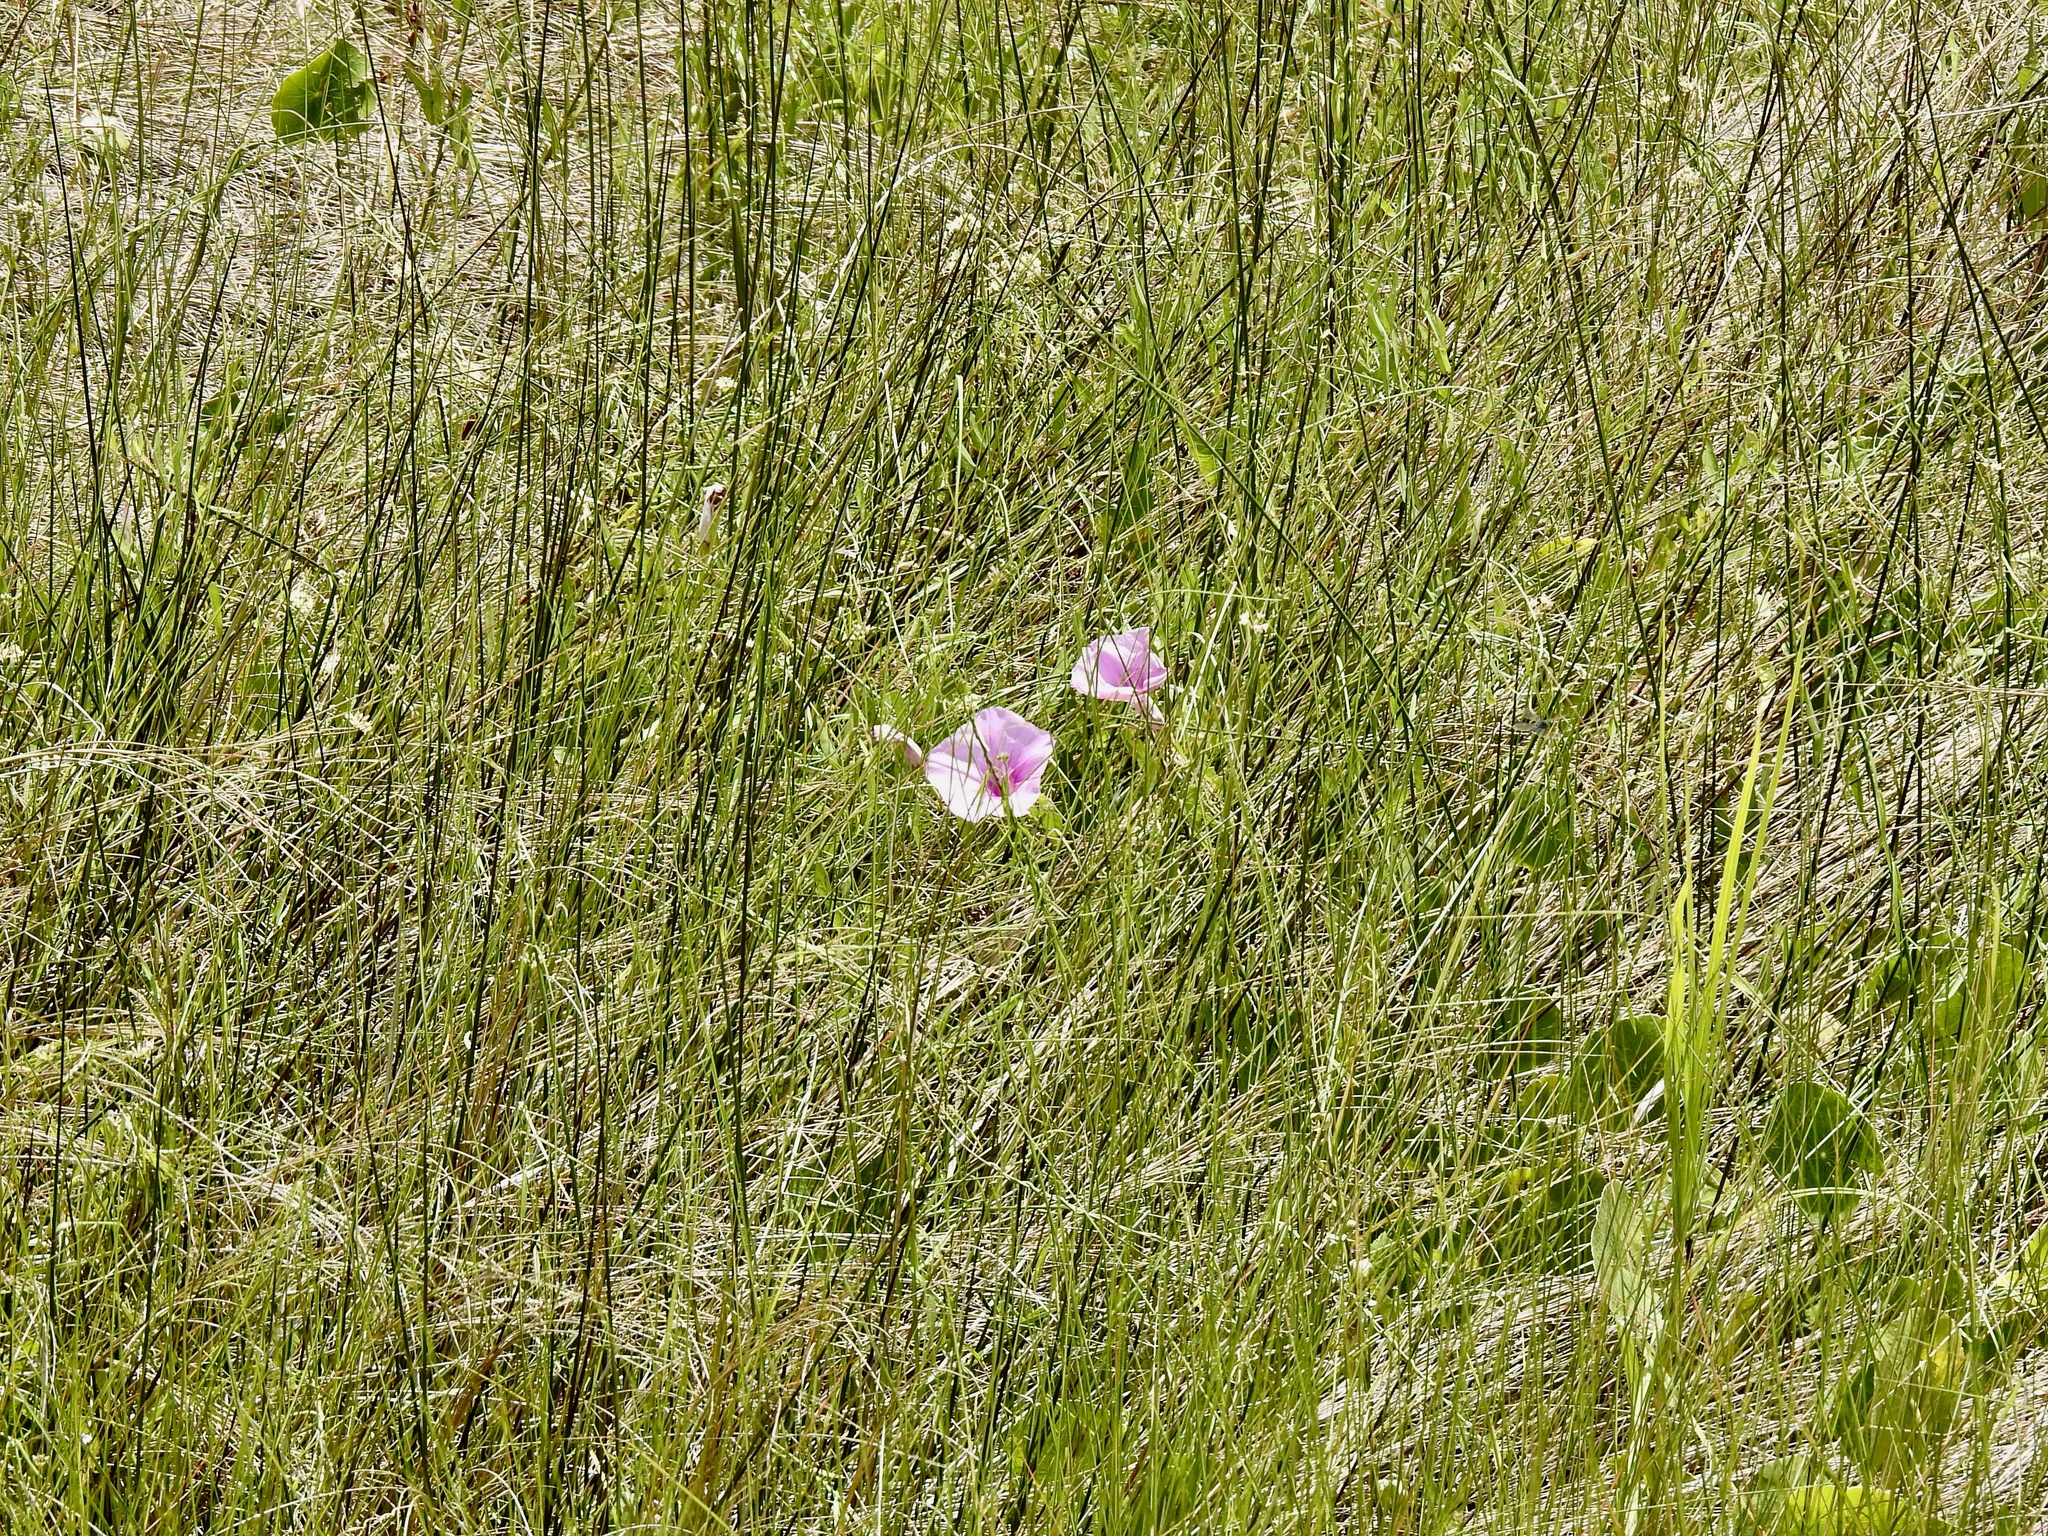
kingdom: Plantae
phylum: Tracheophyta
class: Magnoliopsida
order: Solanales
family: Convolvulaceae
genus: Ipomoea
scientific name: Ipomoea sagittata
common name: Saltmarsh morning glory
